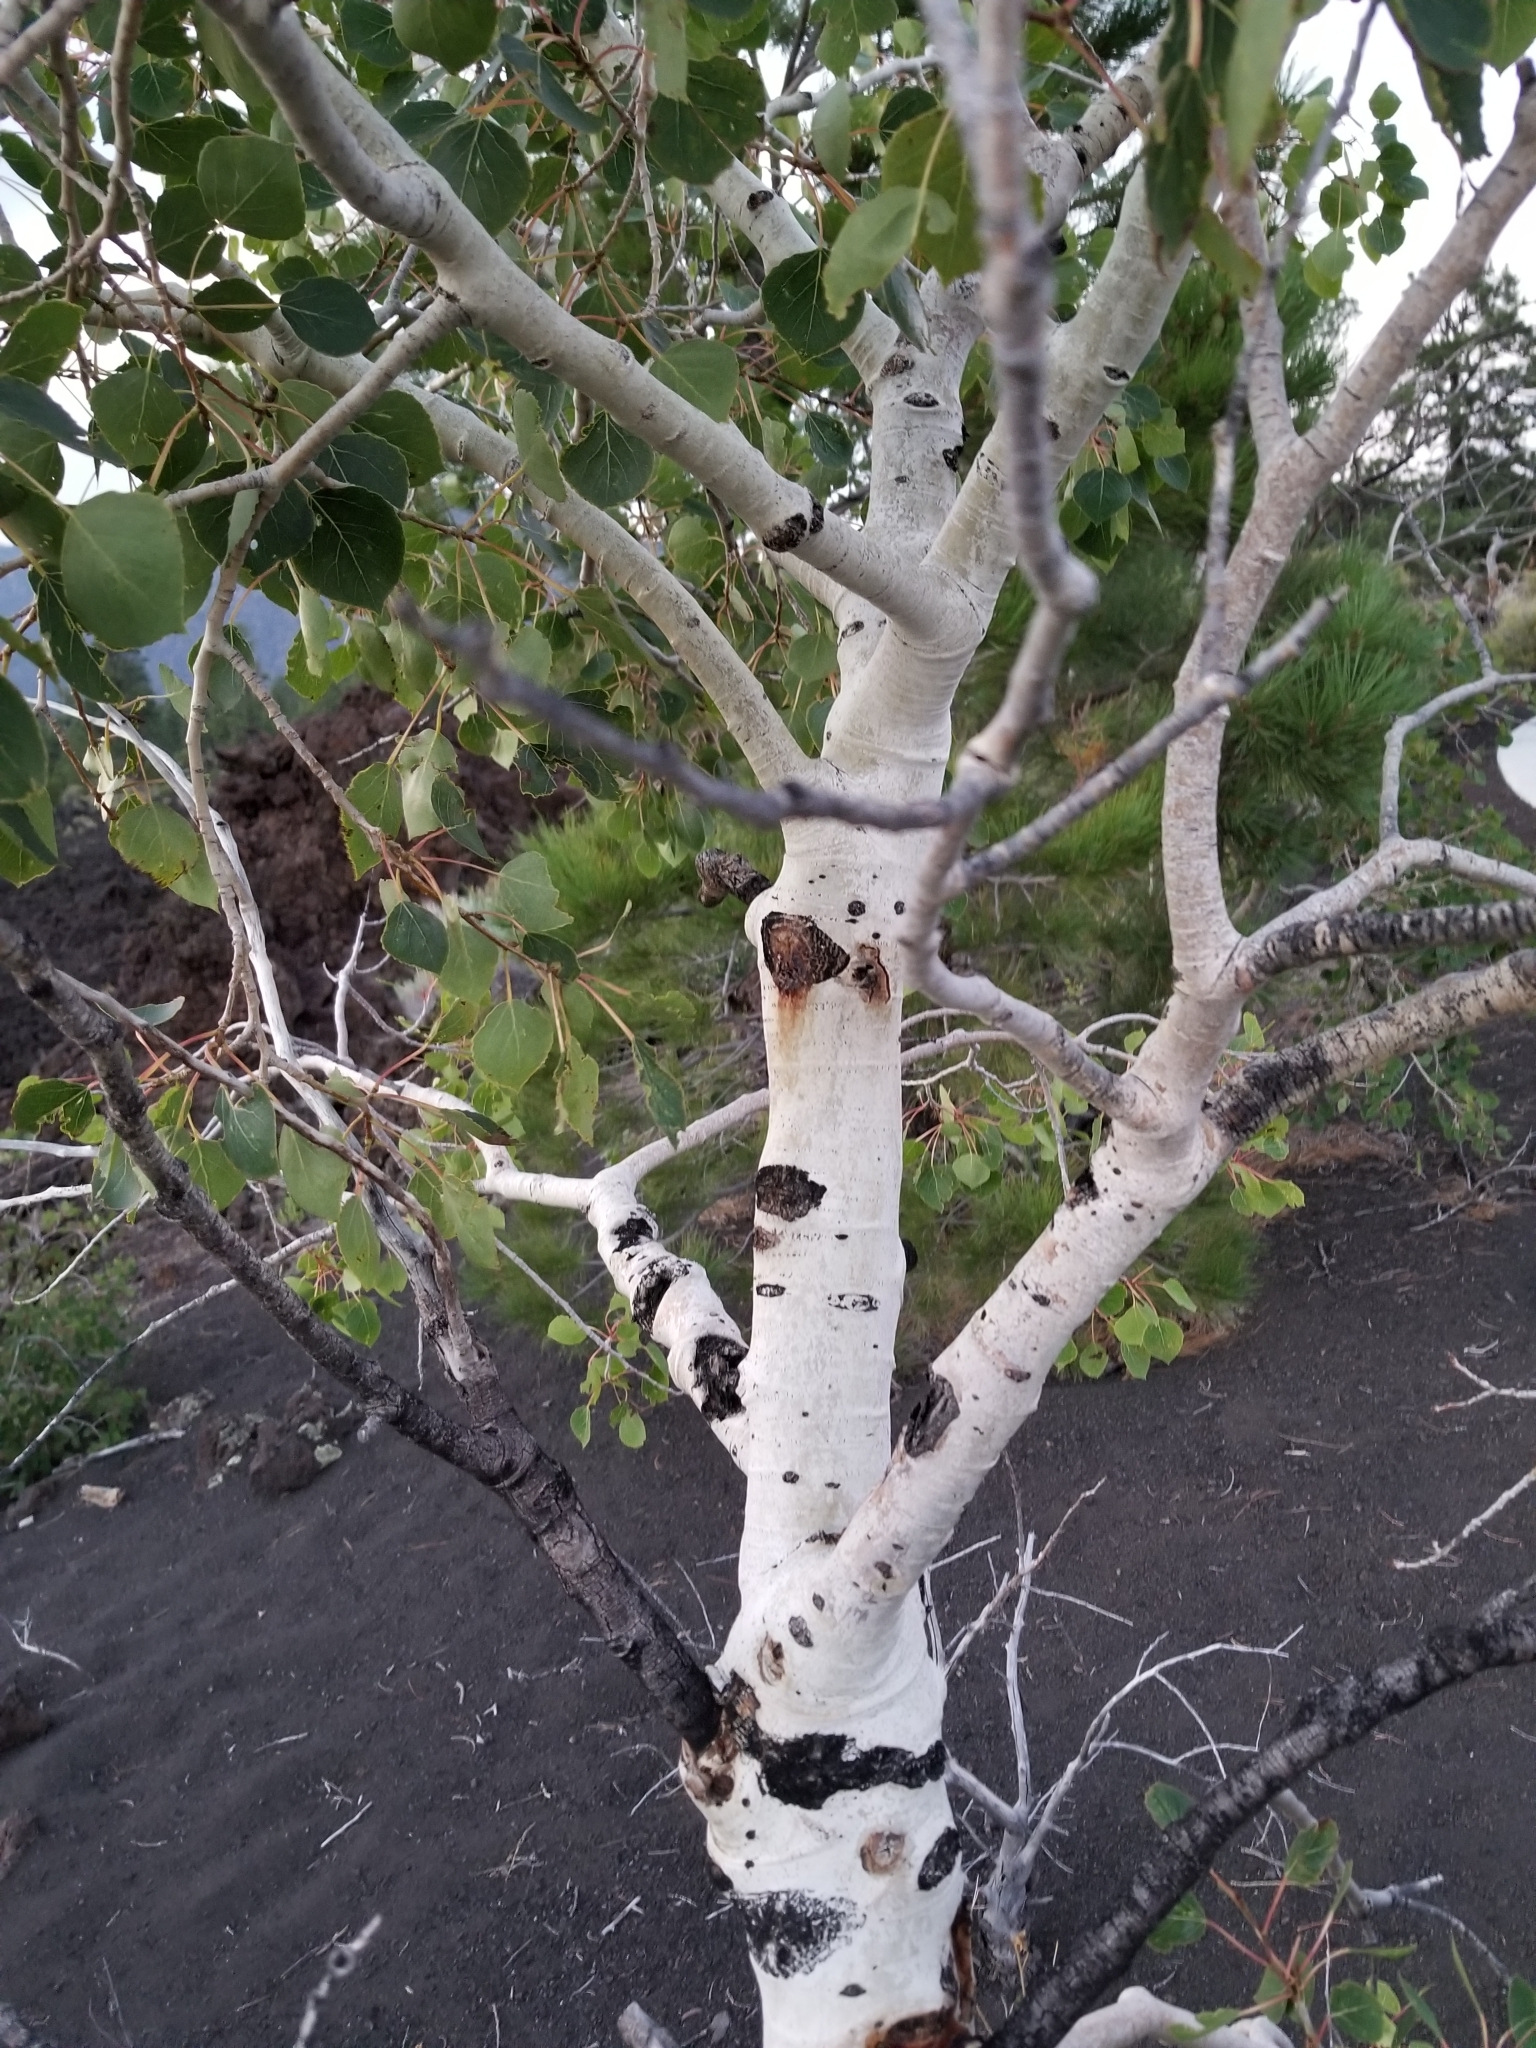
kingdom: Plantae
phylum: Tracheophyta
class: Magnoliopsida
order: Malpighiales
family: Salicaceae
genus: Populus
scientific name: Populus tremuloides
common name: Quaking aspen
